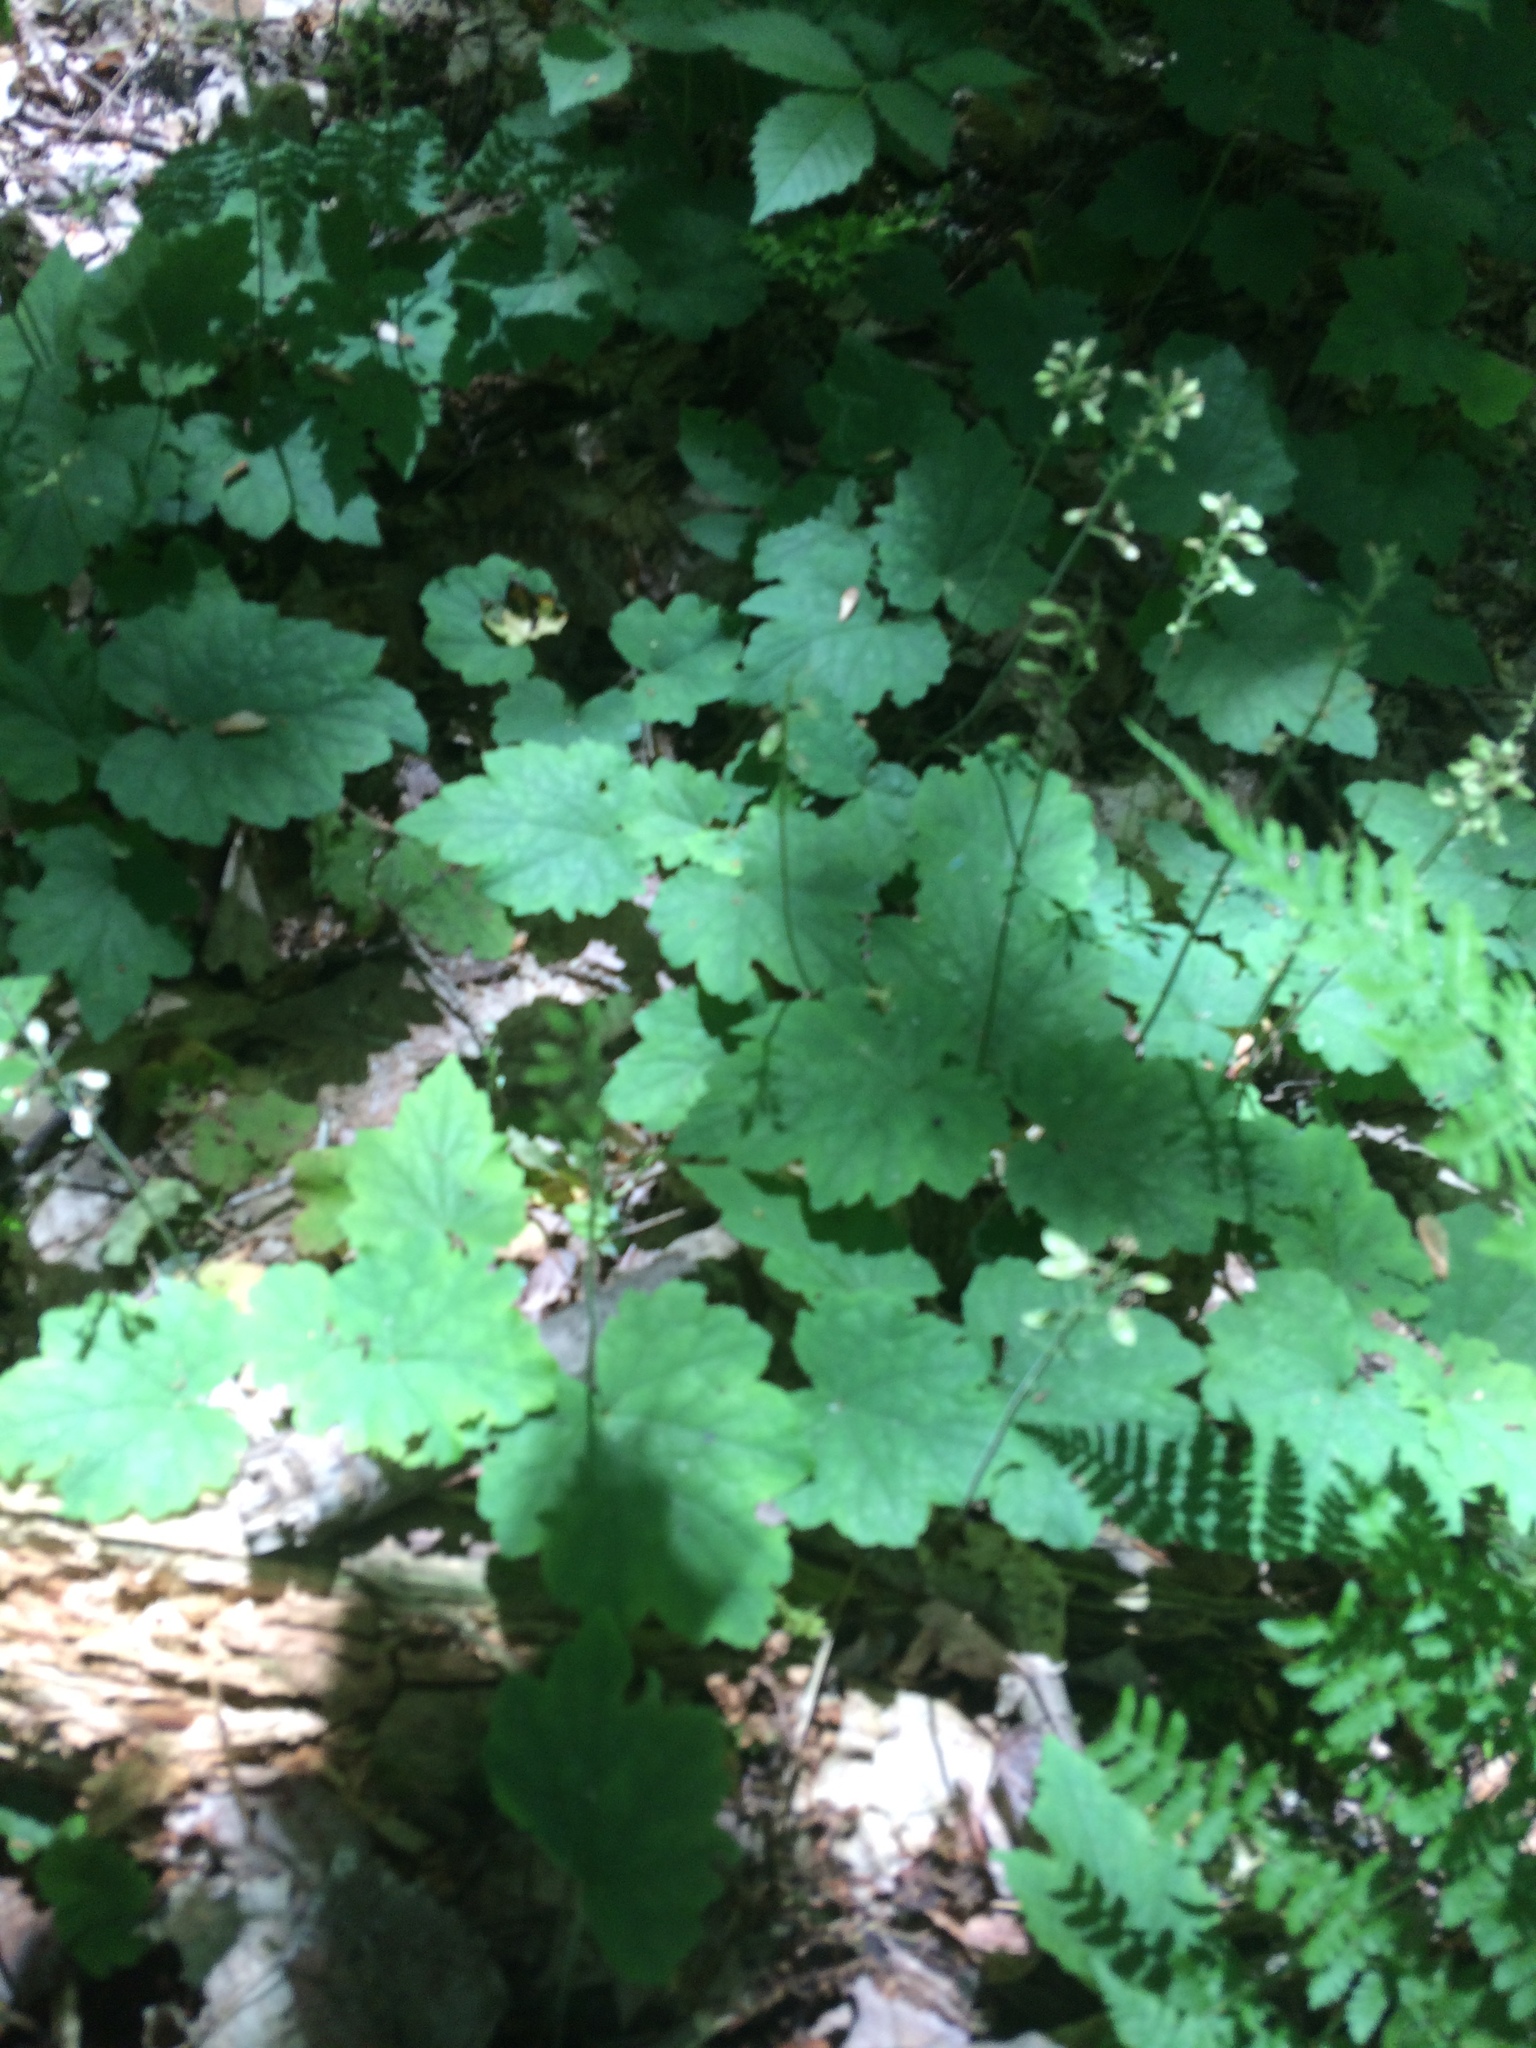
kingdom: Plantae
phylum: Tracheophyta
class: Magnoliopsida
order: Saxifragales
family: Saxifragaceae
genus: Tiarella
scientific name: Tiarella stolonifera
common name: Stoloniferous foamflower
